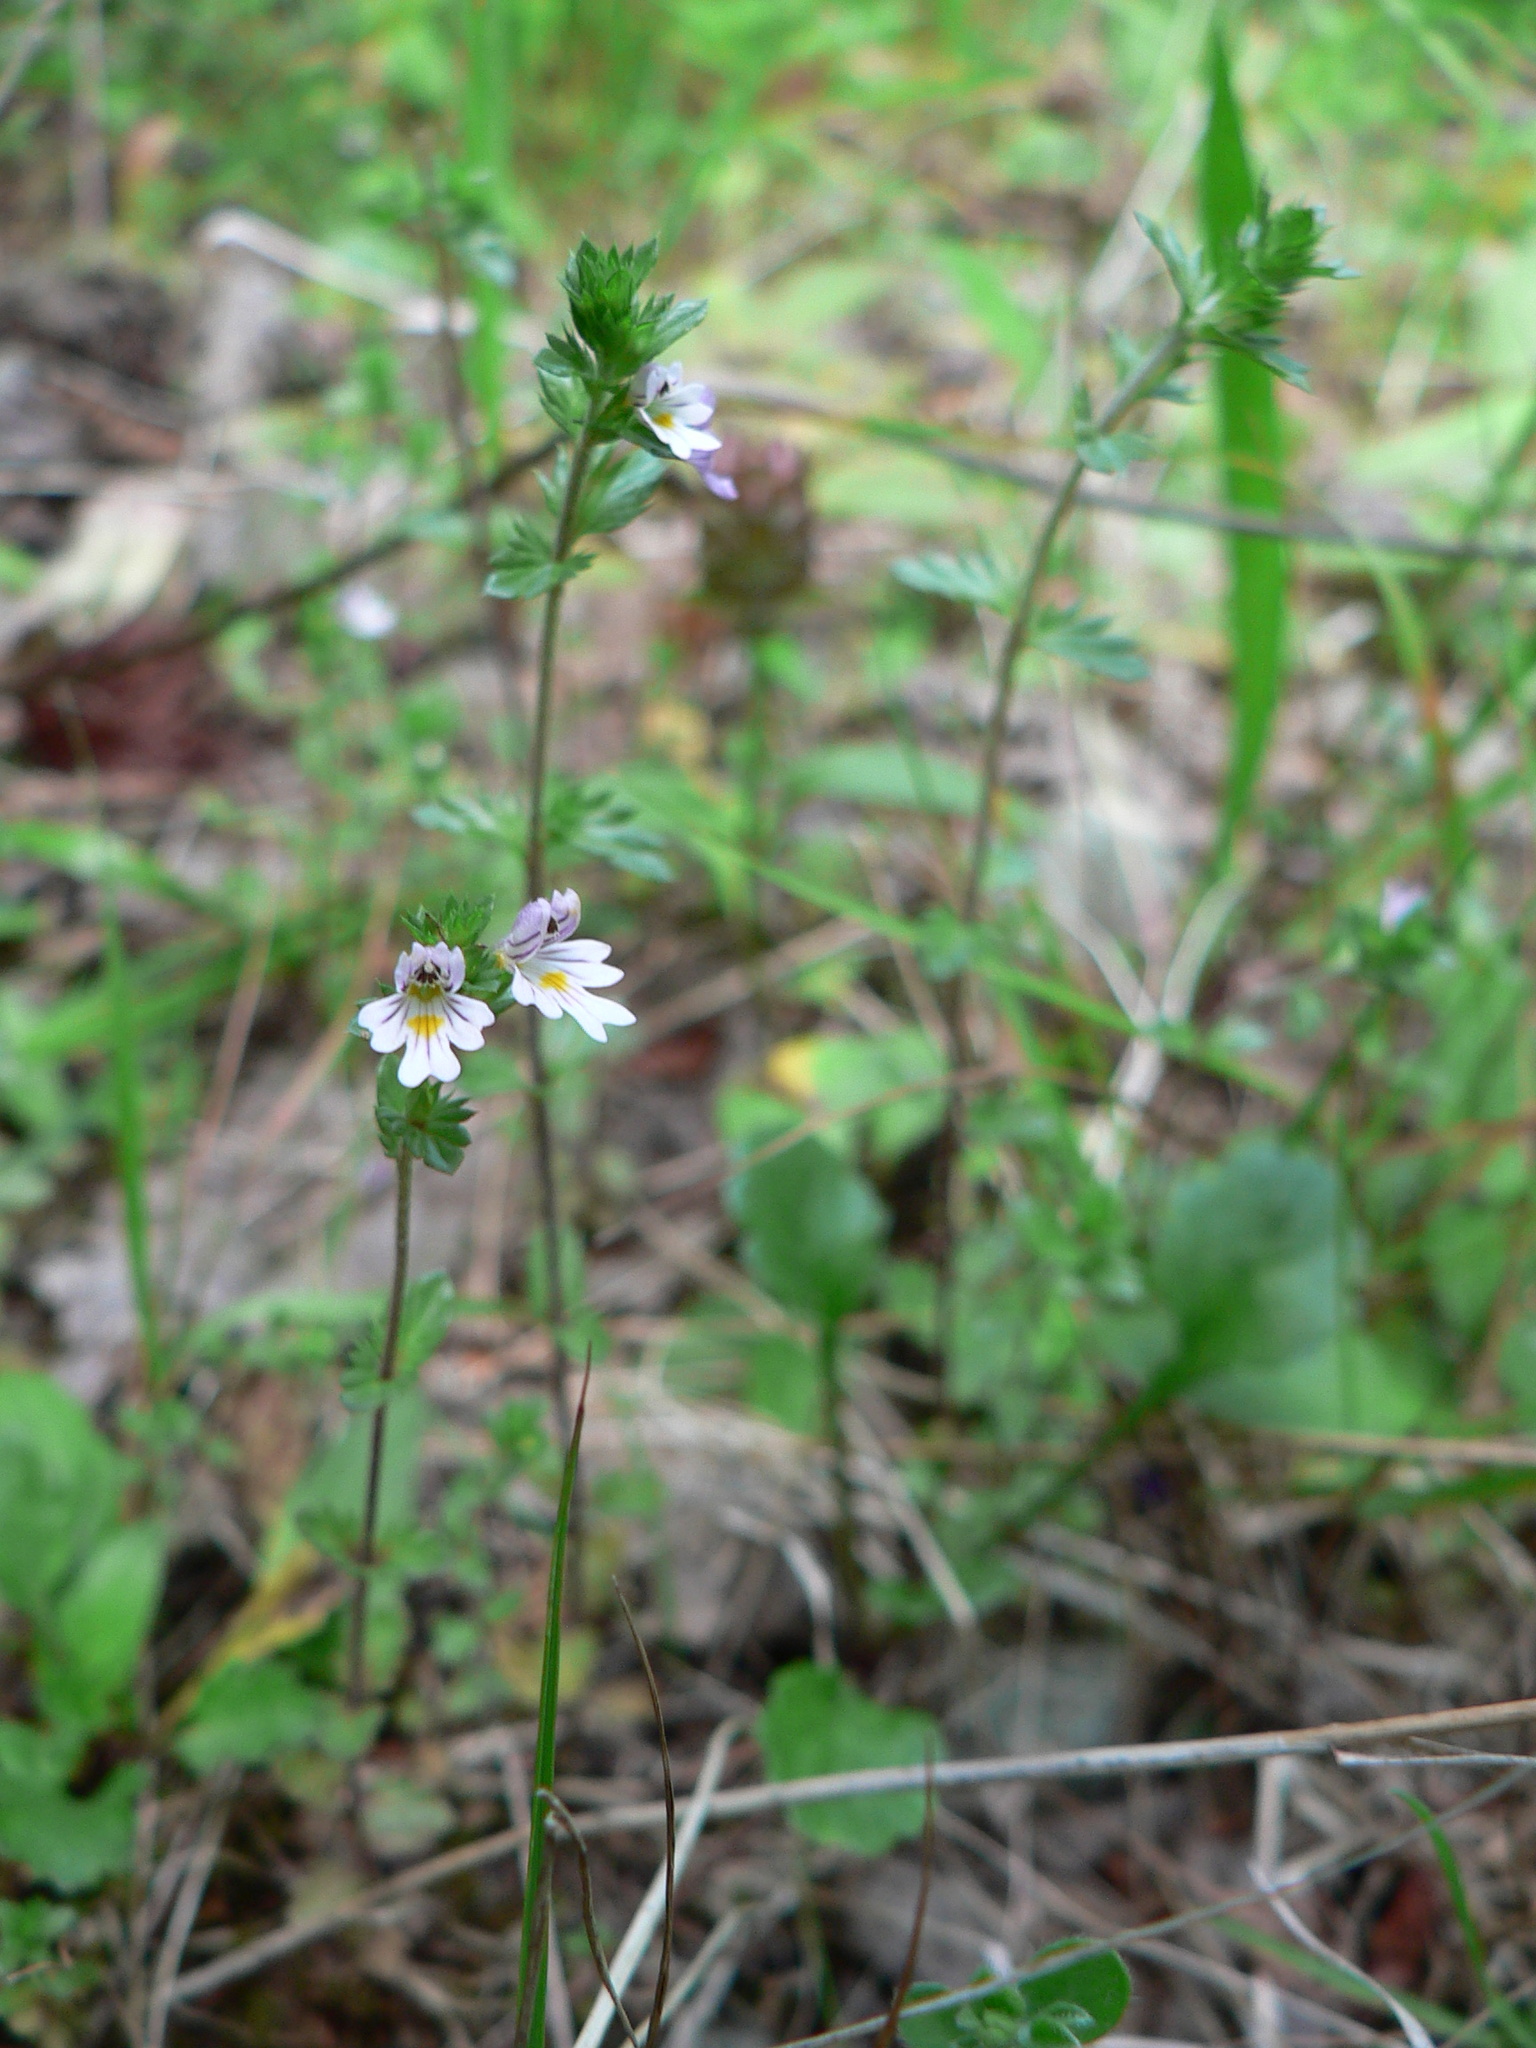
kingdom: Plantae
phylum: Tracheophyta
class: Magnoliopsida
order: Lamiales
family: Orobanchaceae
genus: Euphrasia
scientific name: Euphrasia nemorosa
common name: Common eyebright
